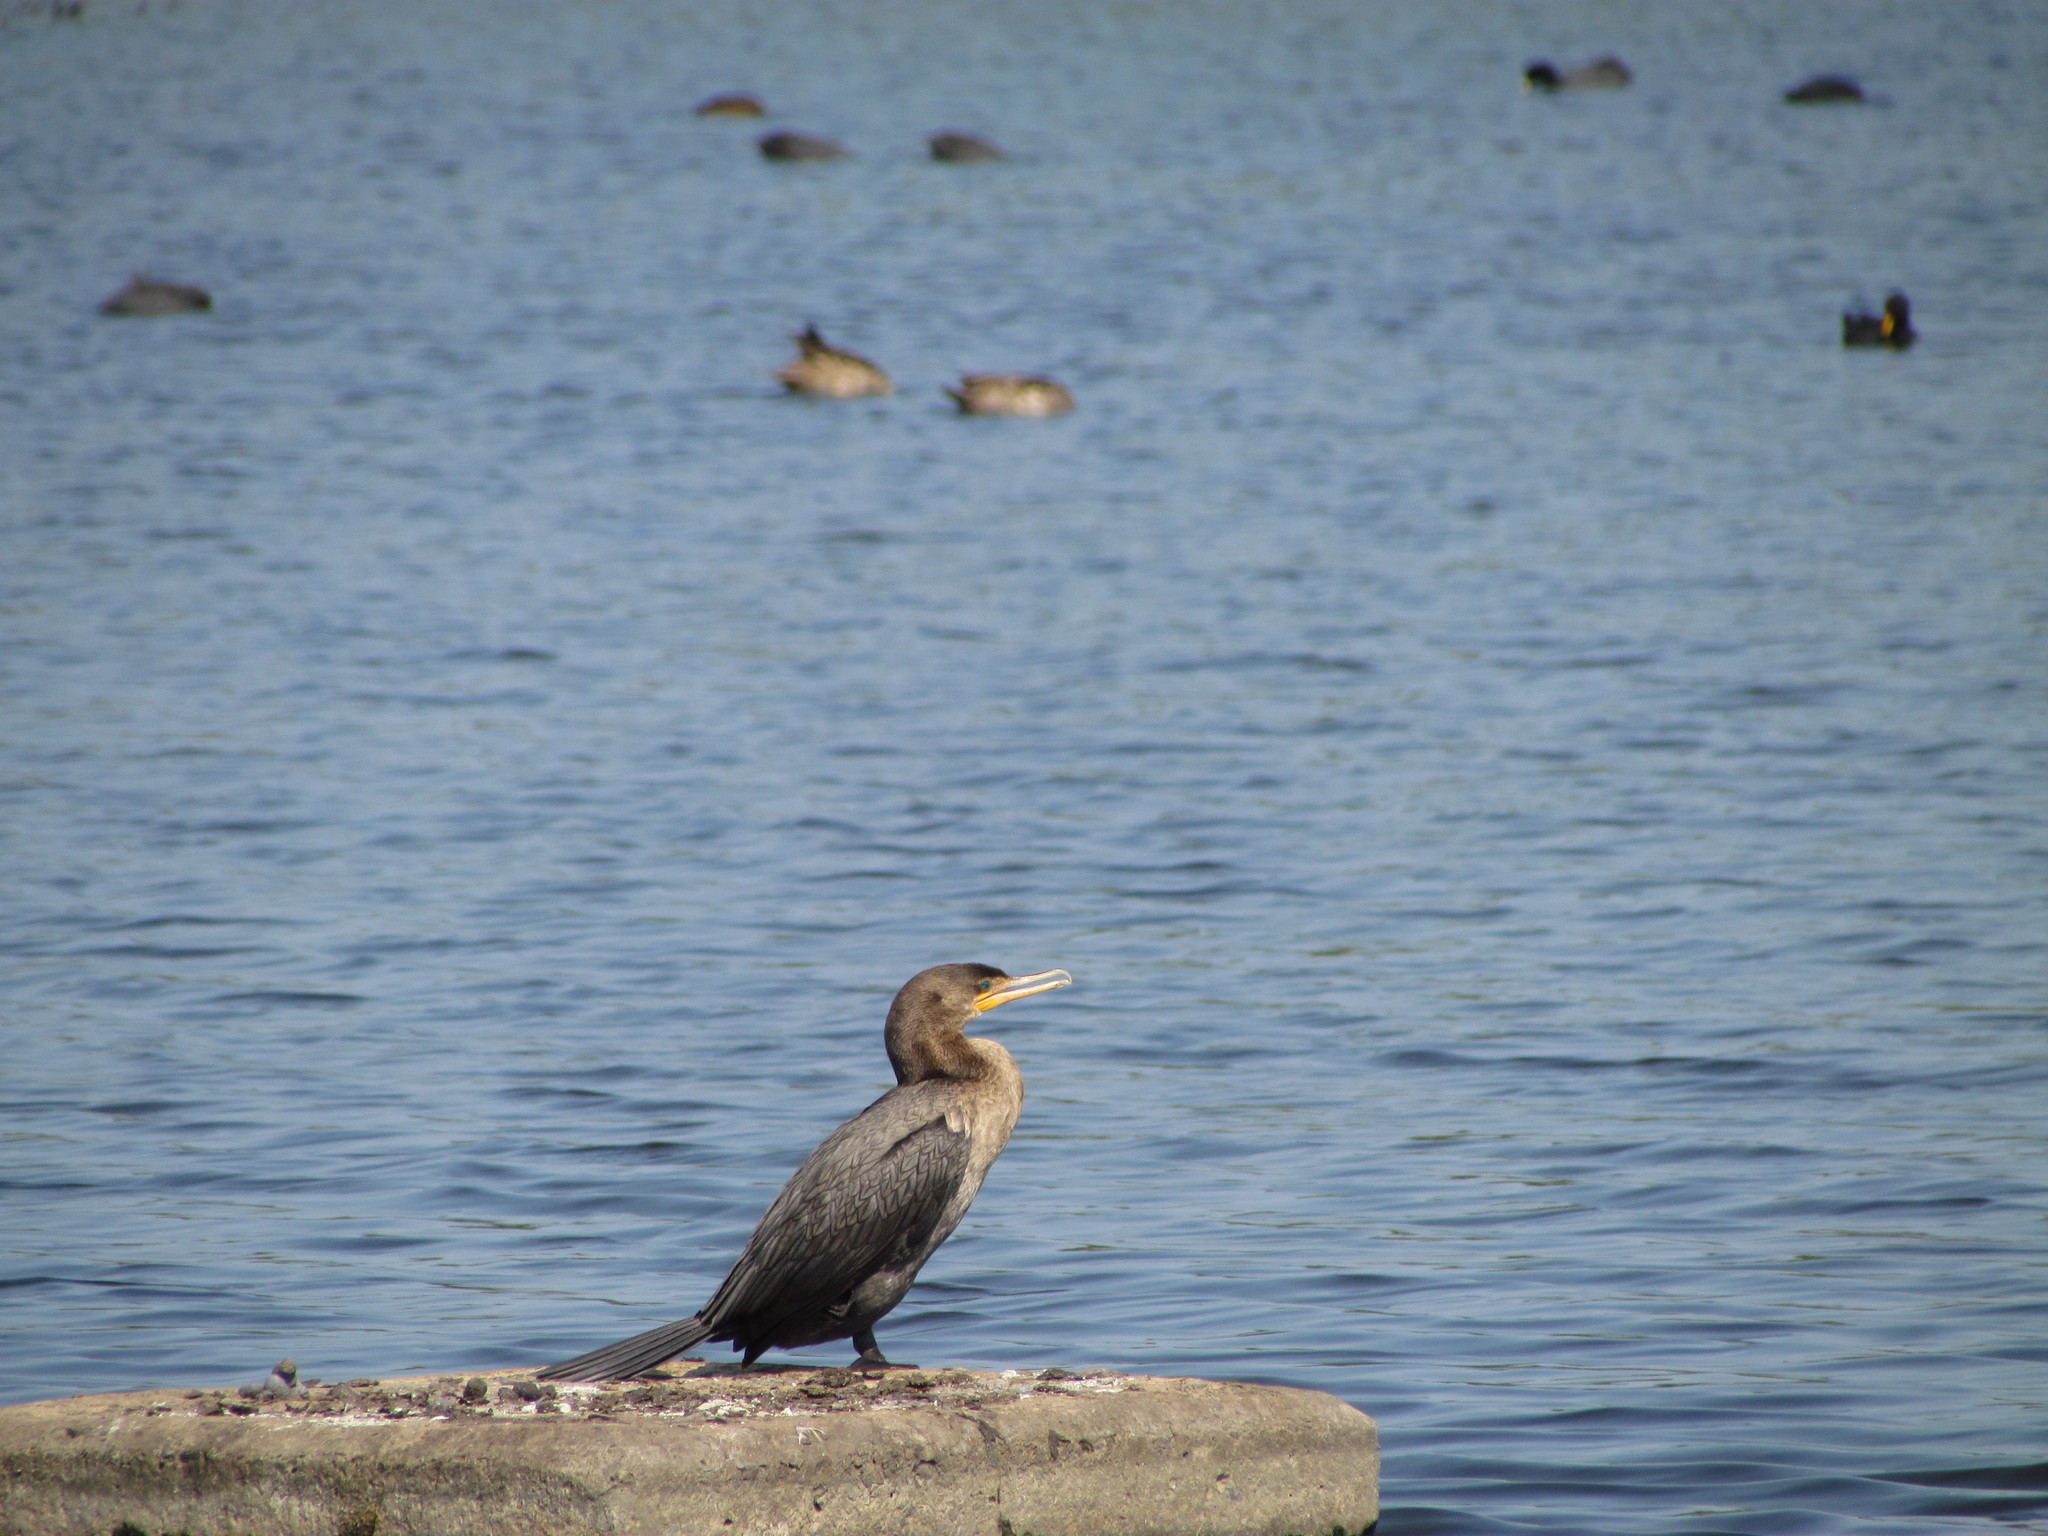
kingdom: Animalia
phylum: Chordata
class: Aves
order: Suliformes
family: Phalacrocoracidae
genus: Phalacrocorax
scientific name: Phalacrocorax brasilianus
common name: Neotropic cormorant
